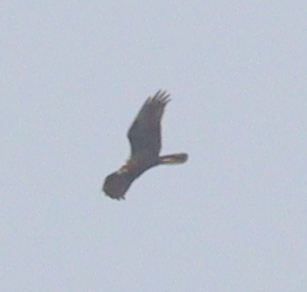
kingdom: Animalia
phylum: Chordata
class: Aves
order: Accipitriformes
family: Accipitridae
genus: Circus
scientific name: Circus aeruginosus
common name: Western marsh harrier
